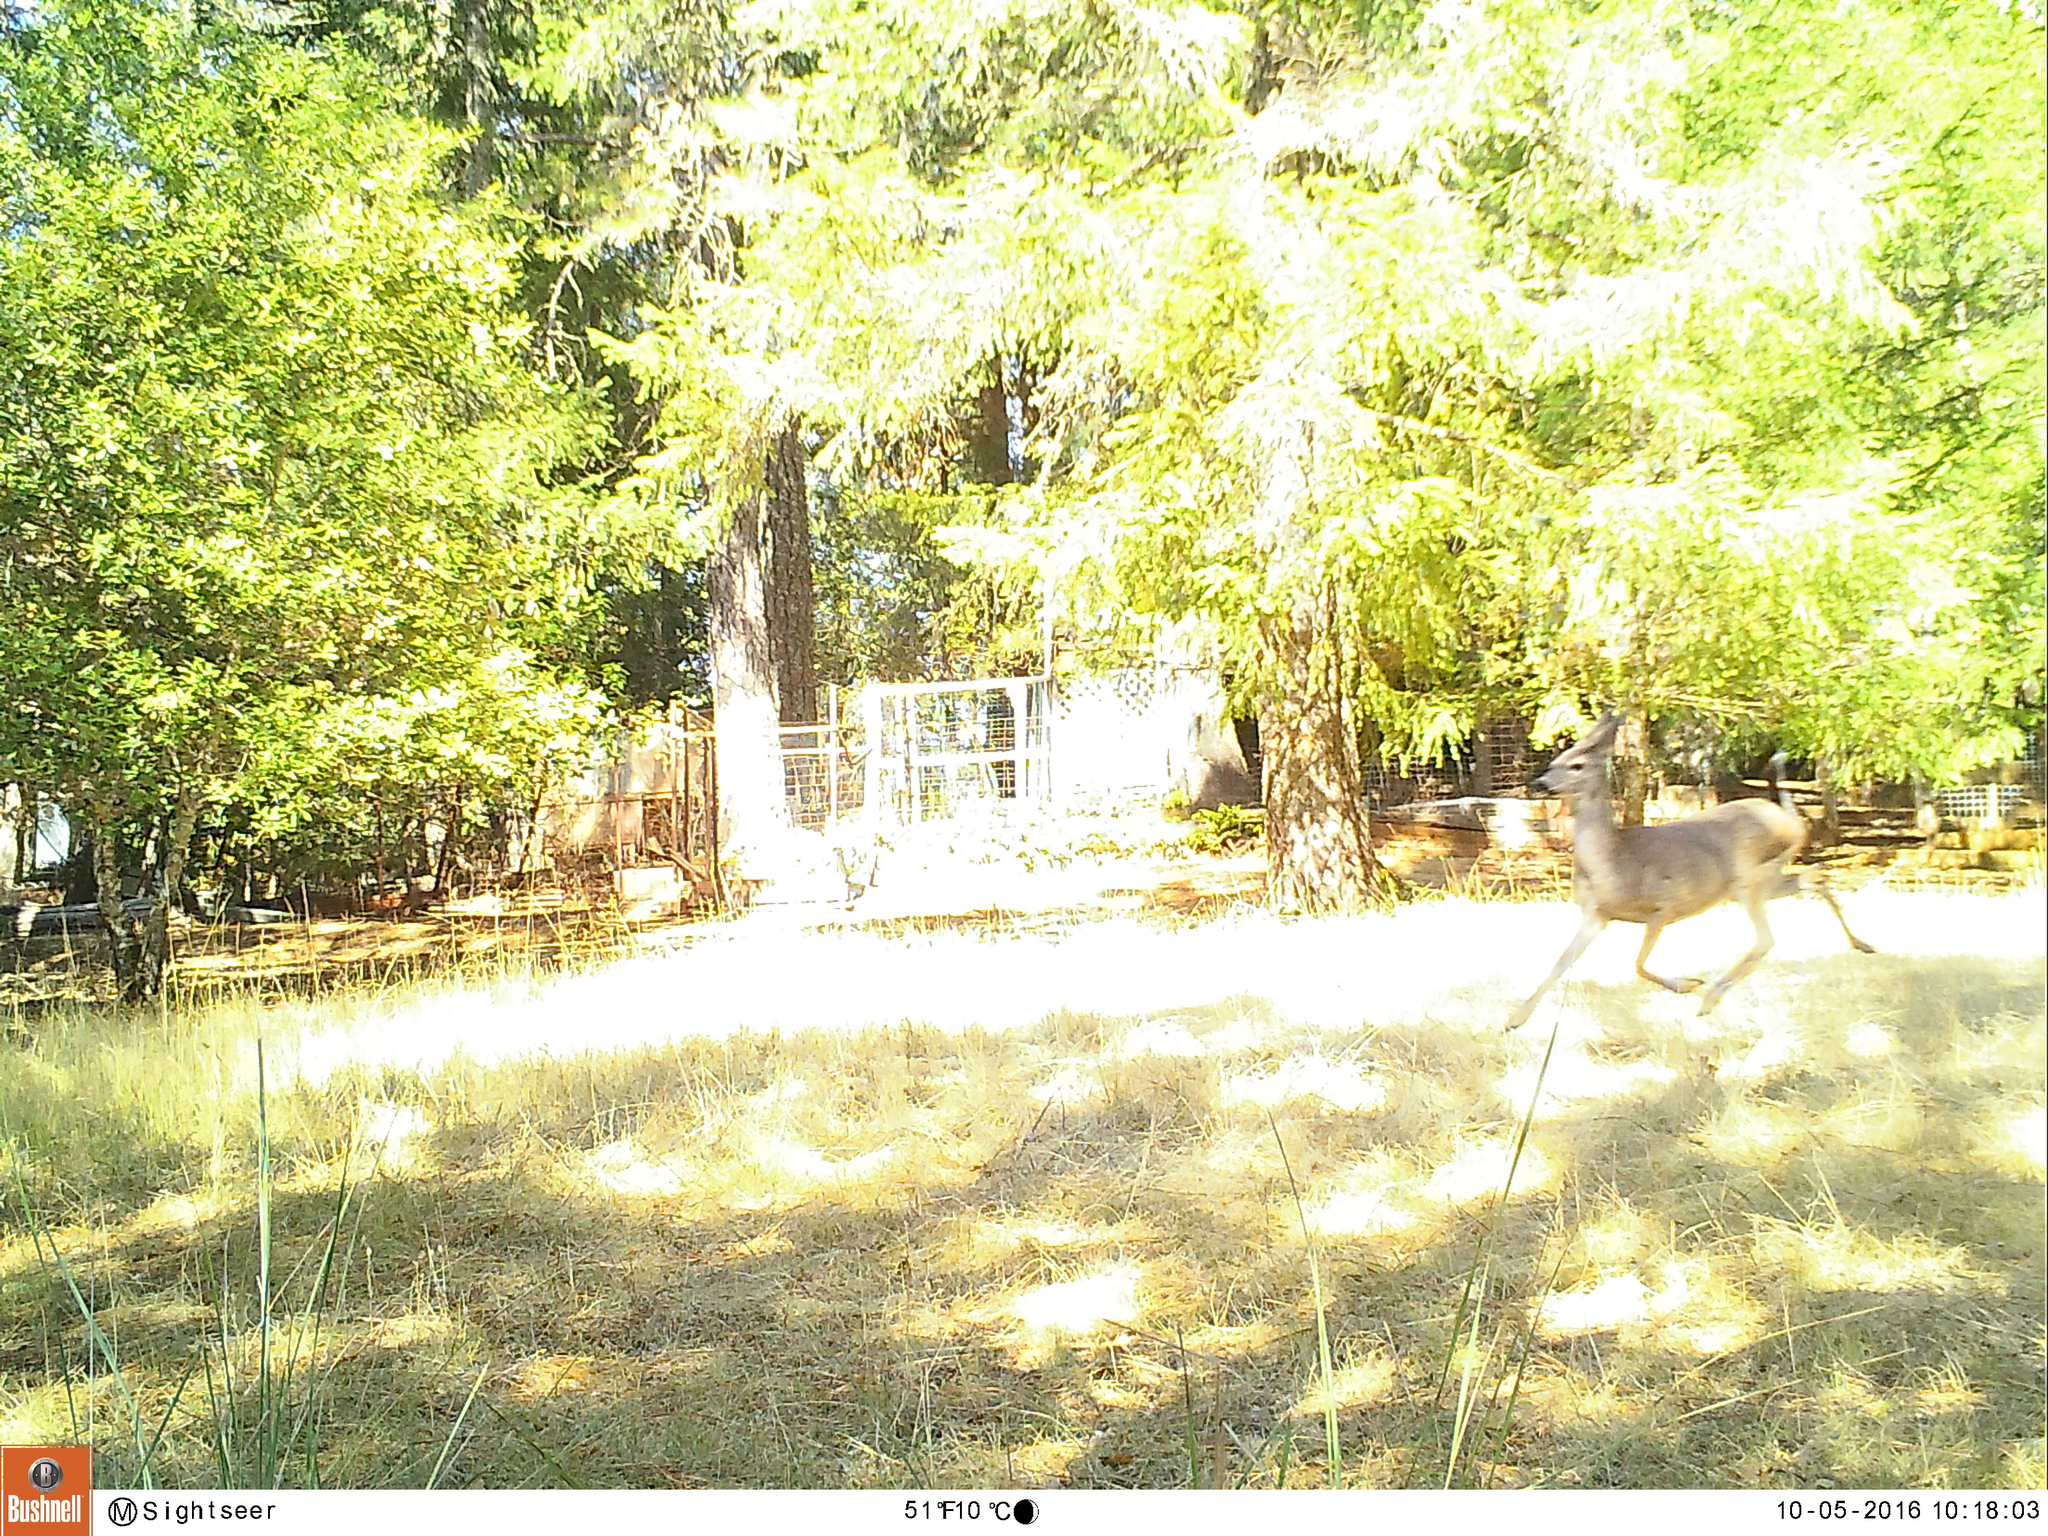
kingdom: Animalia
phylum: Chordata
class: Mammalia
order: Artiodactyla
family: Cervidae
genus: Odocoileus
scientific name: Odocoileus hemionus
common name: Mule deer
